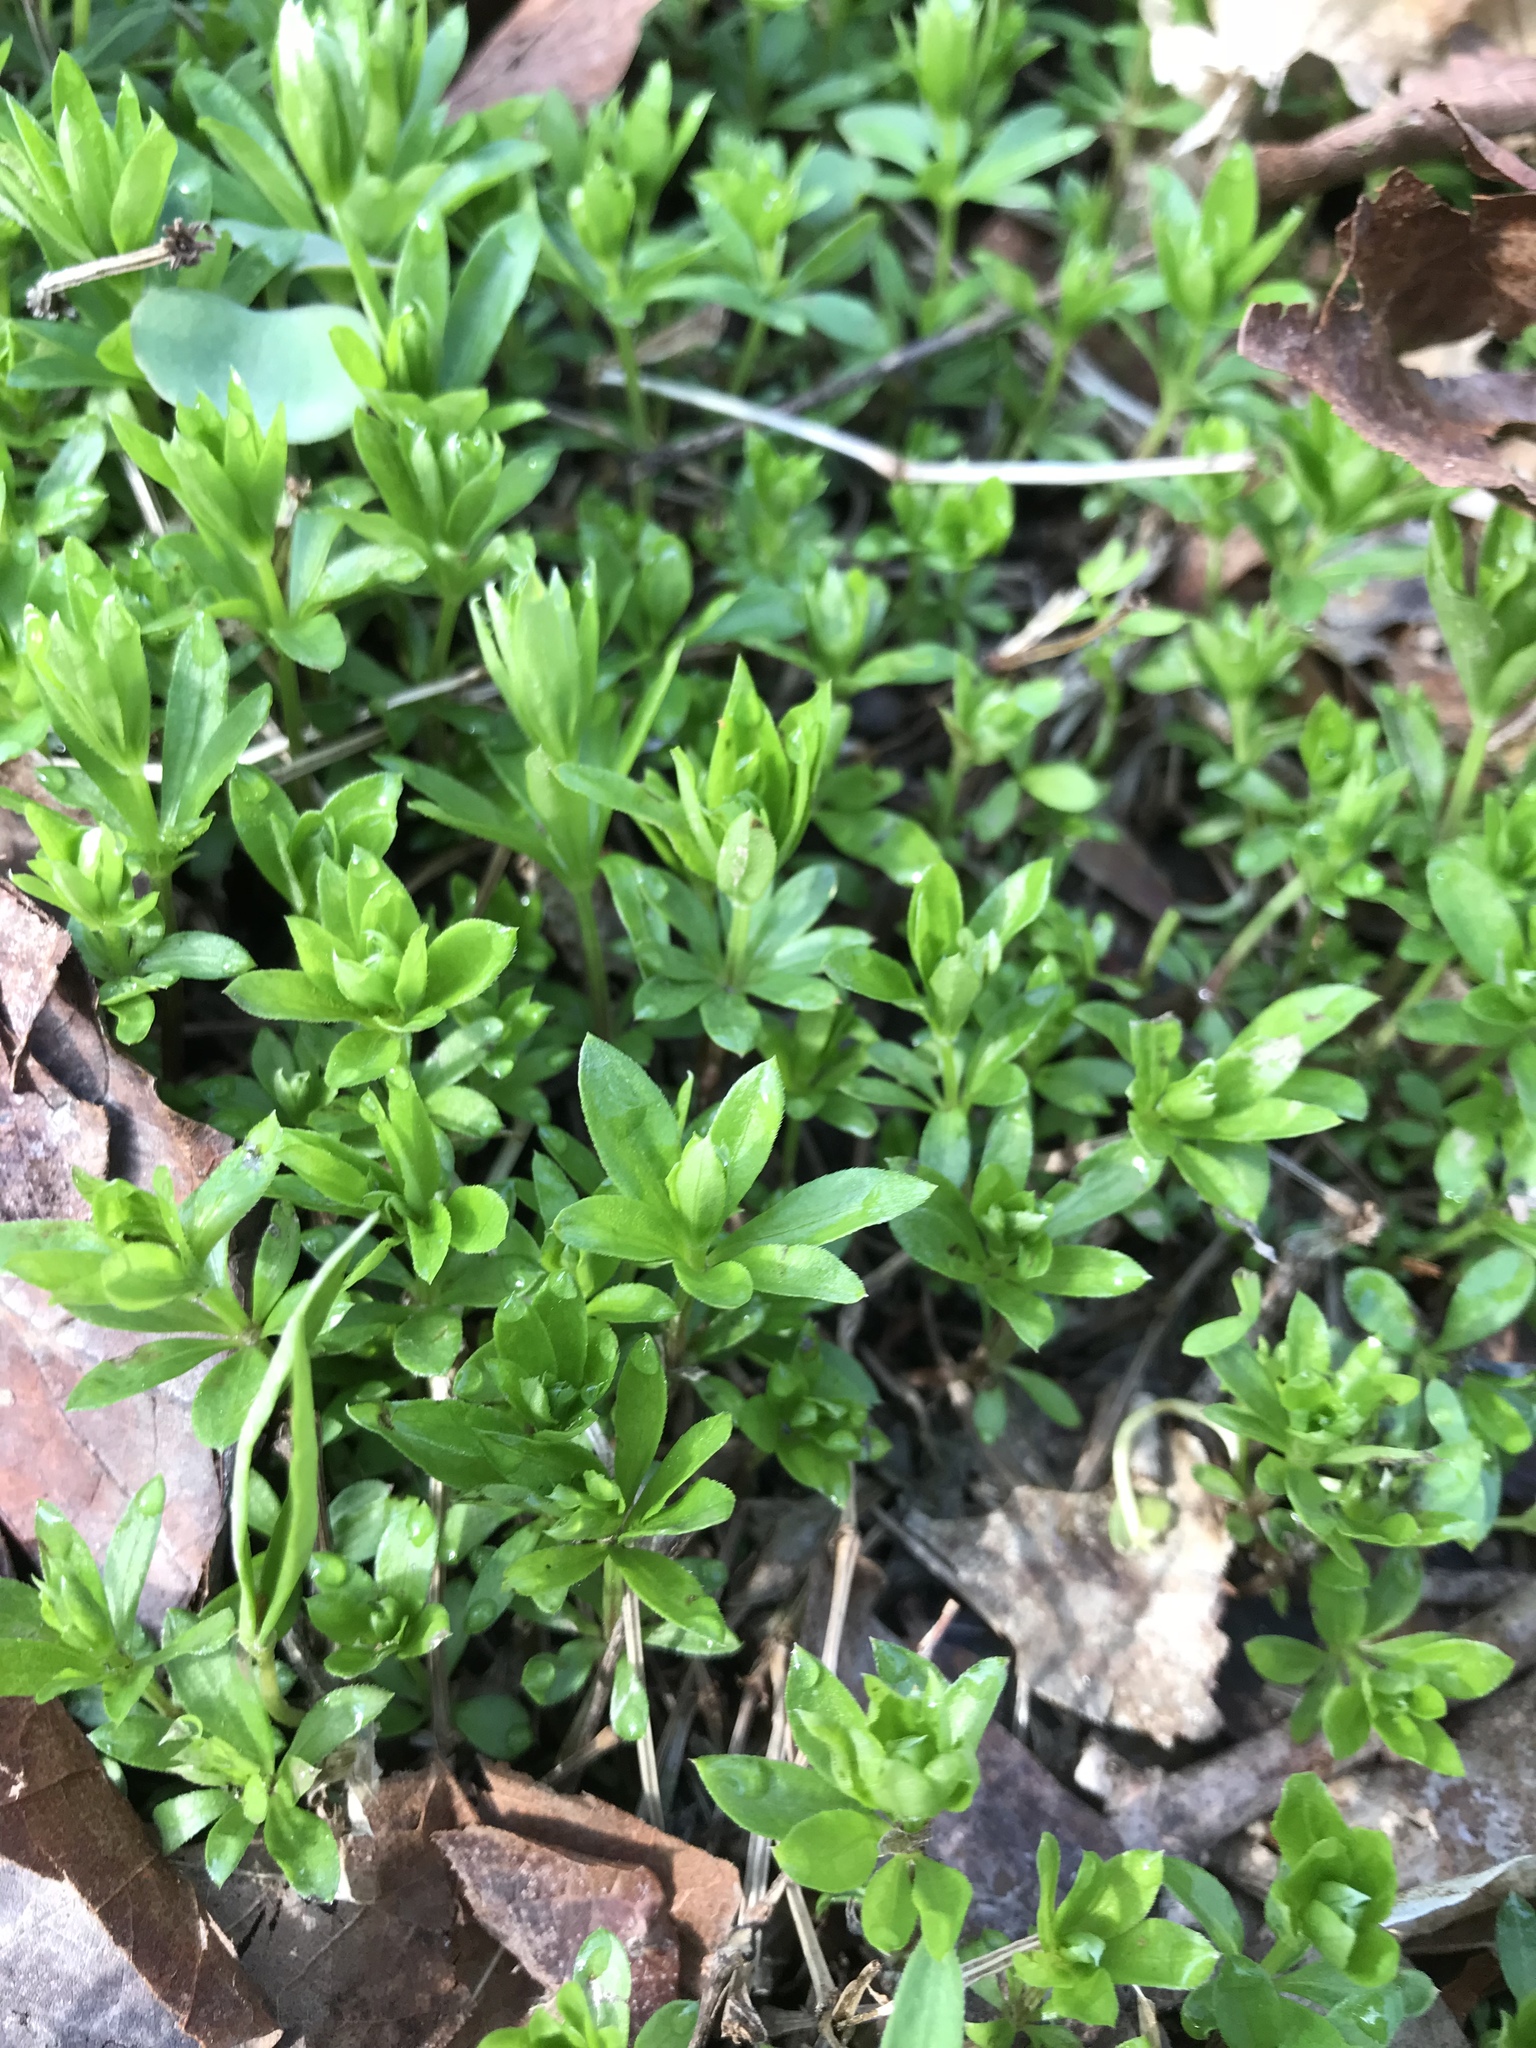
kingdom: Plantae
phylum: Tracheophyta
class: Magnoliopsida
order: Gentianales
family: Rubiaceae
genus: Galium
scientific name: Galium odoratum
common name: Sweet woodruff
